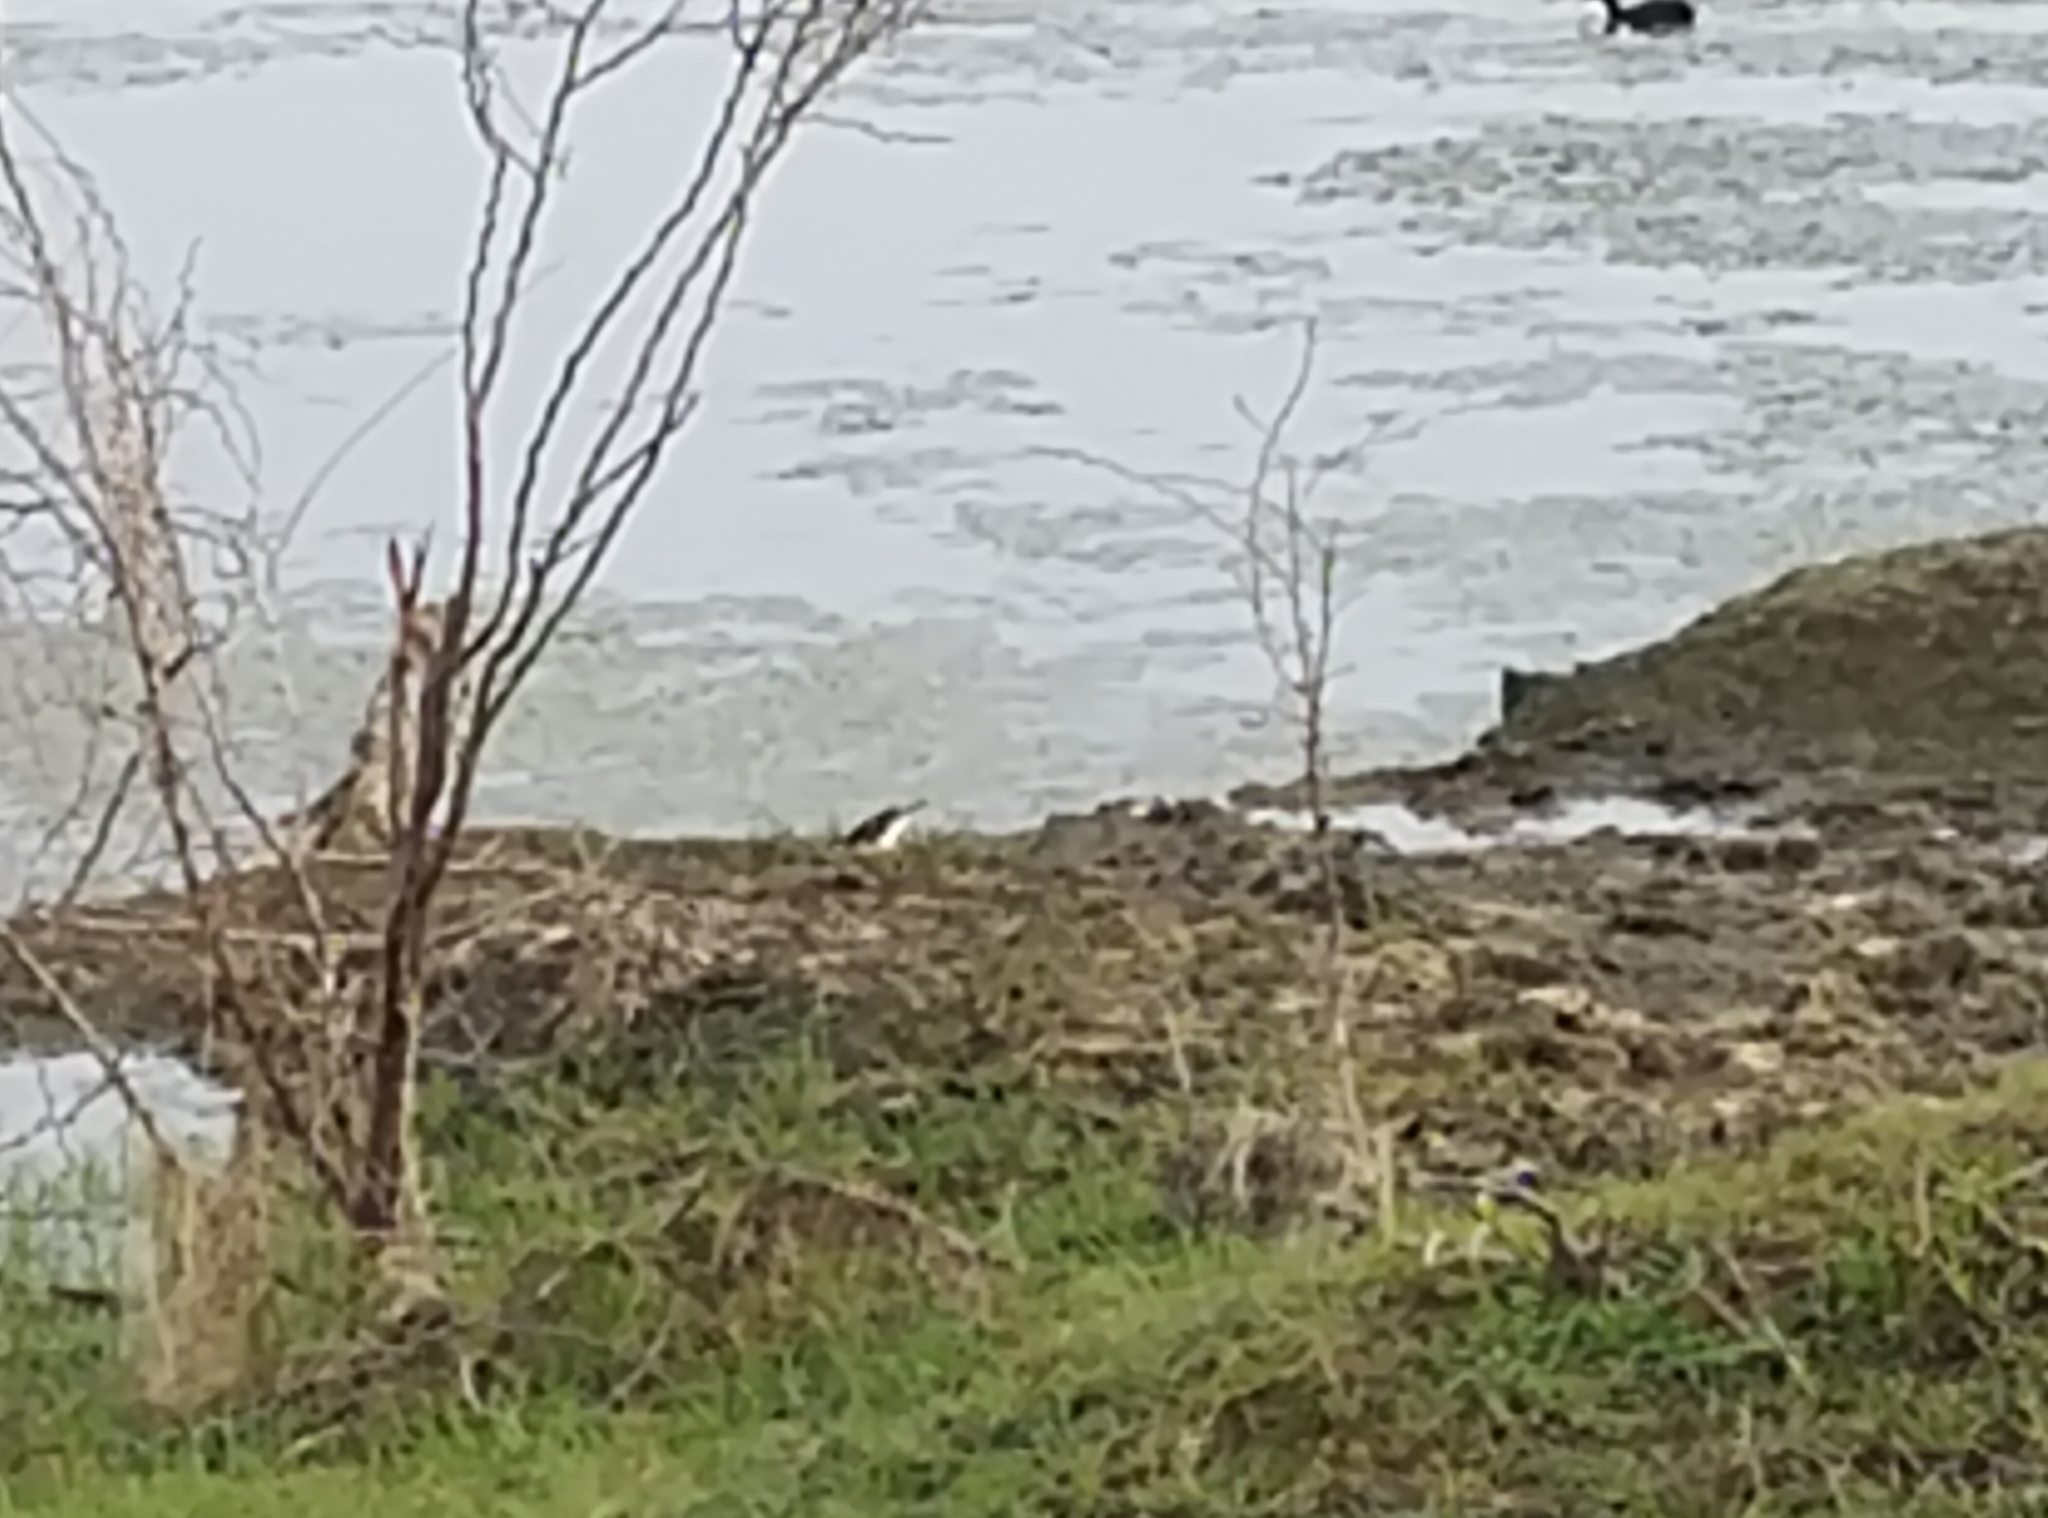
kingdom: Animalia
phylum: Chordata
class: Aves
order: Passeriformes
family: Sturnidae
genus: Gracupica
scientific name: Gracupica contra
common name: Pied myna
